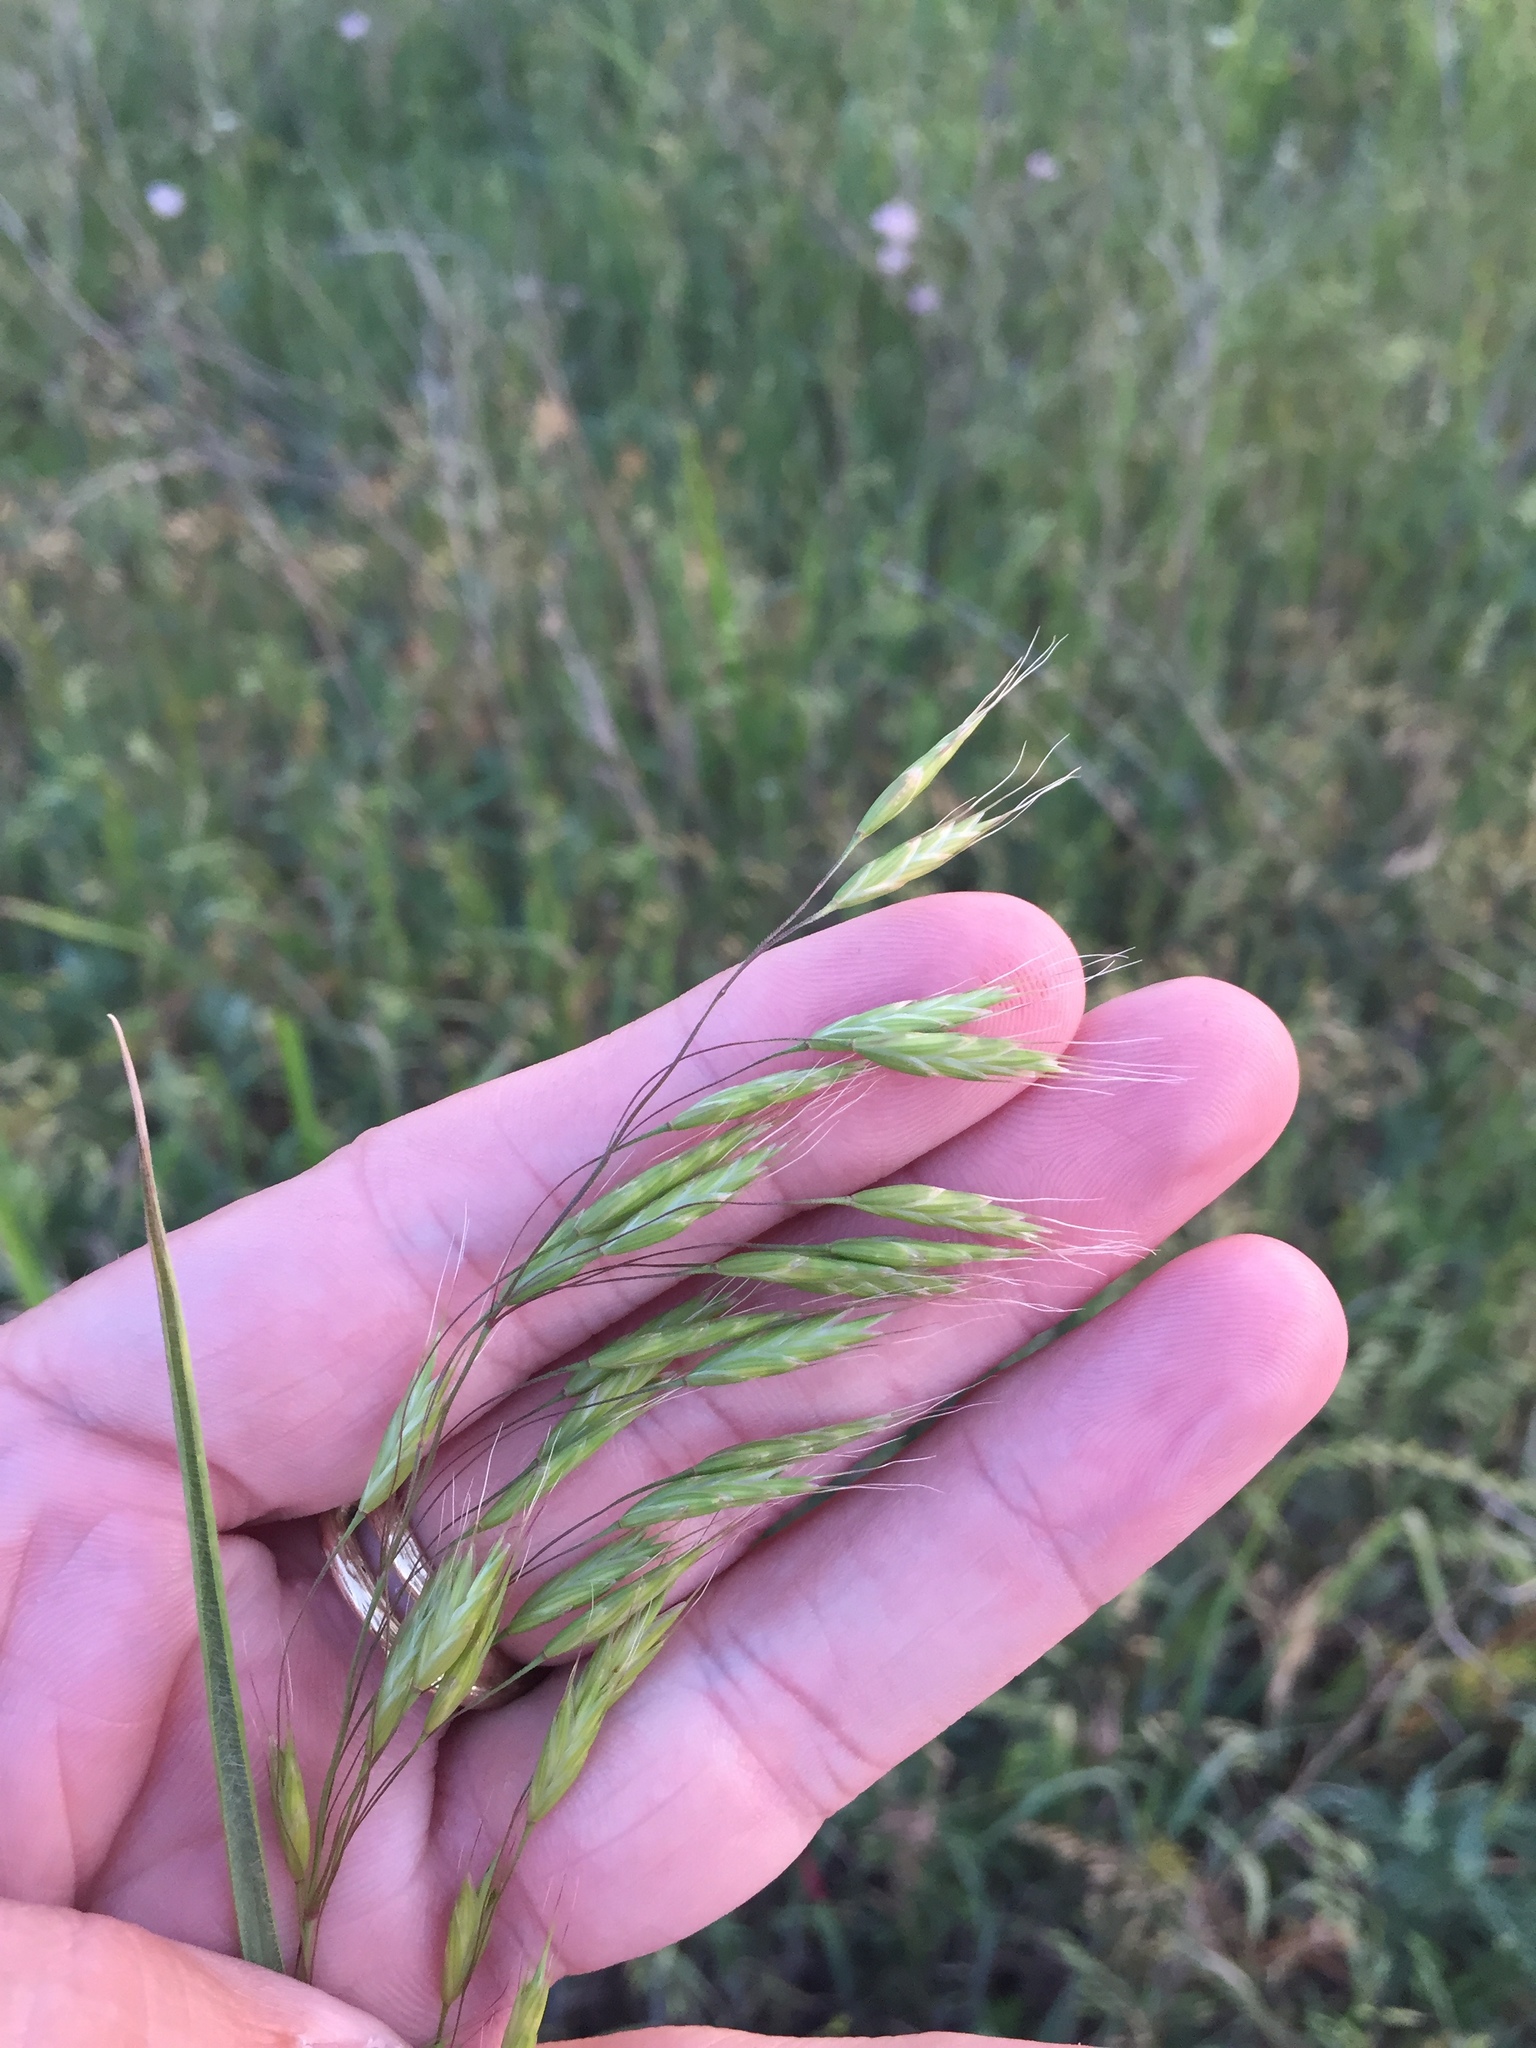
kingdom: Plantae
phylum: Tracheophyta
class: Liliopsida
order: Poales
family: Poaceae
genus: Bromus
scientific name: Bromus japonicus
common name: Japanese brome
